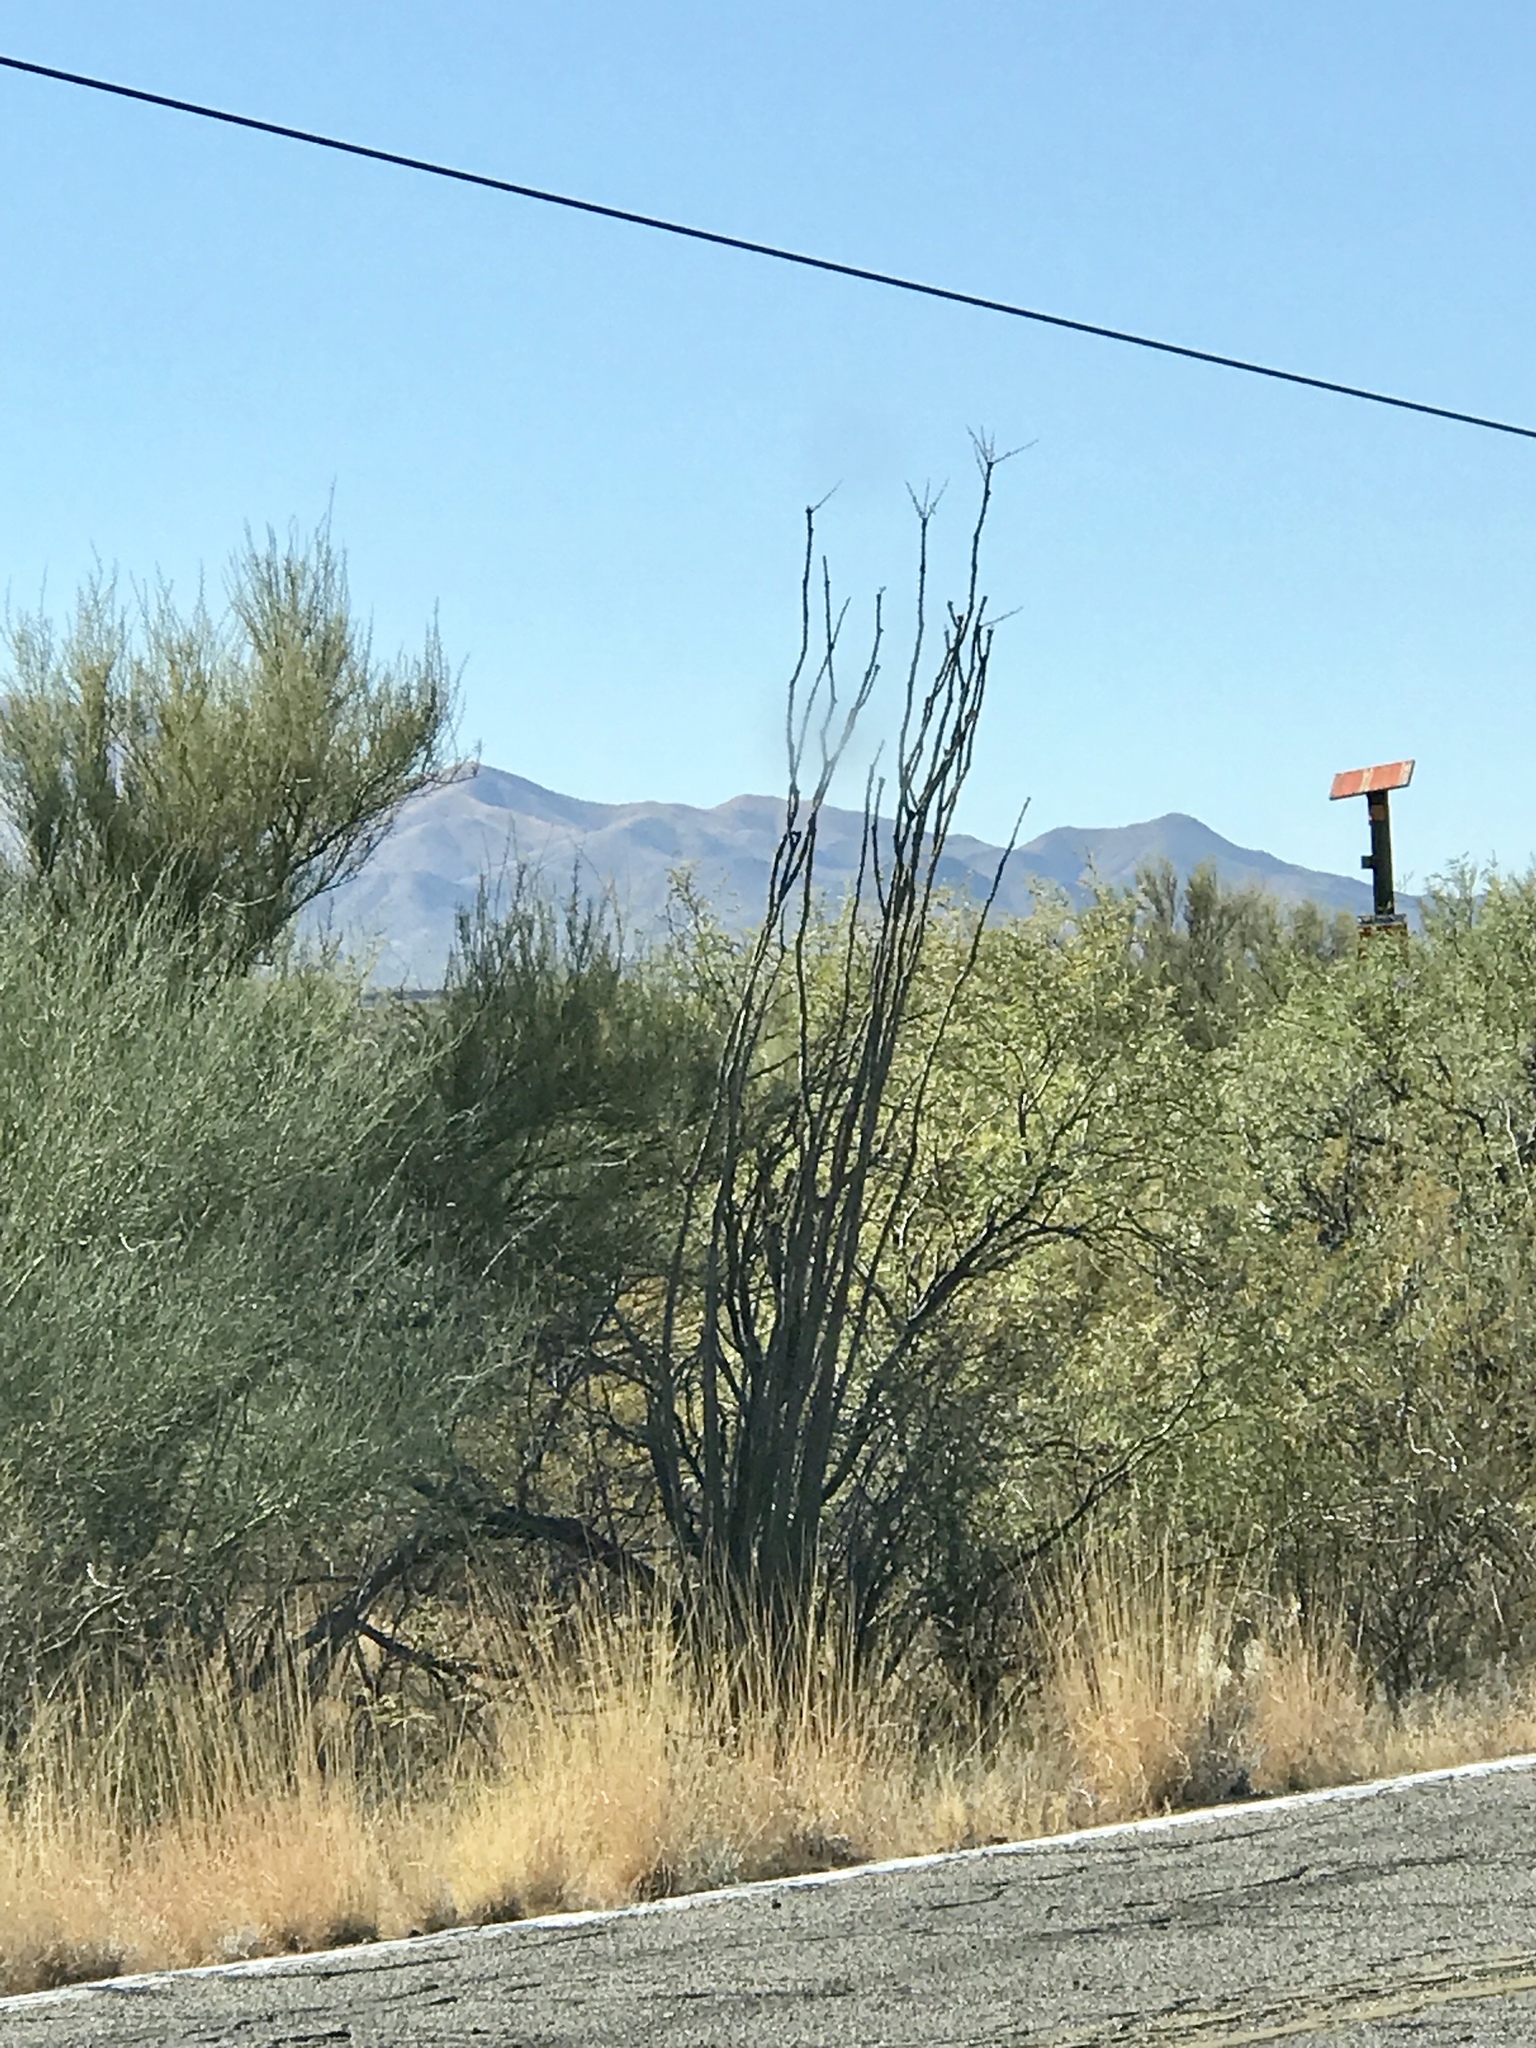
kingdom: Plantae
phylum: Tracheophyta
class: Magnoliopsida
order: Ericales
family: Fouquieriaceae
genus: Fouquieria
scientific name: Fouquieria splendens
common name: Vine-cactus
